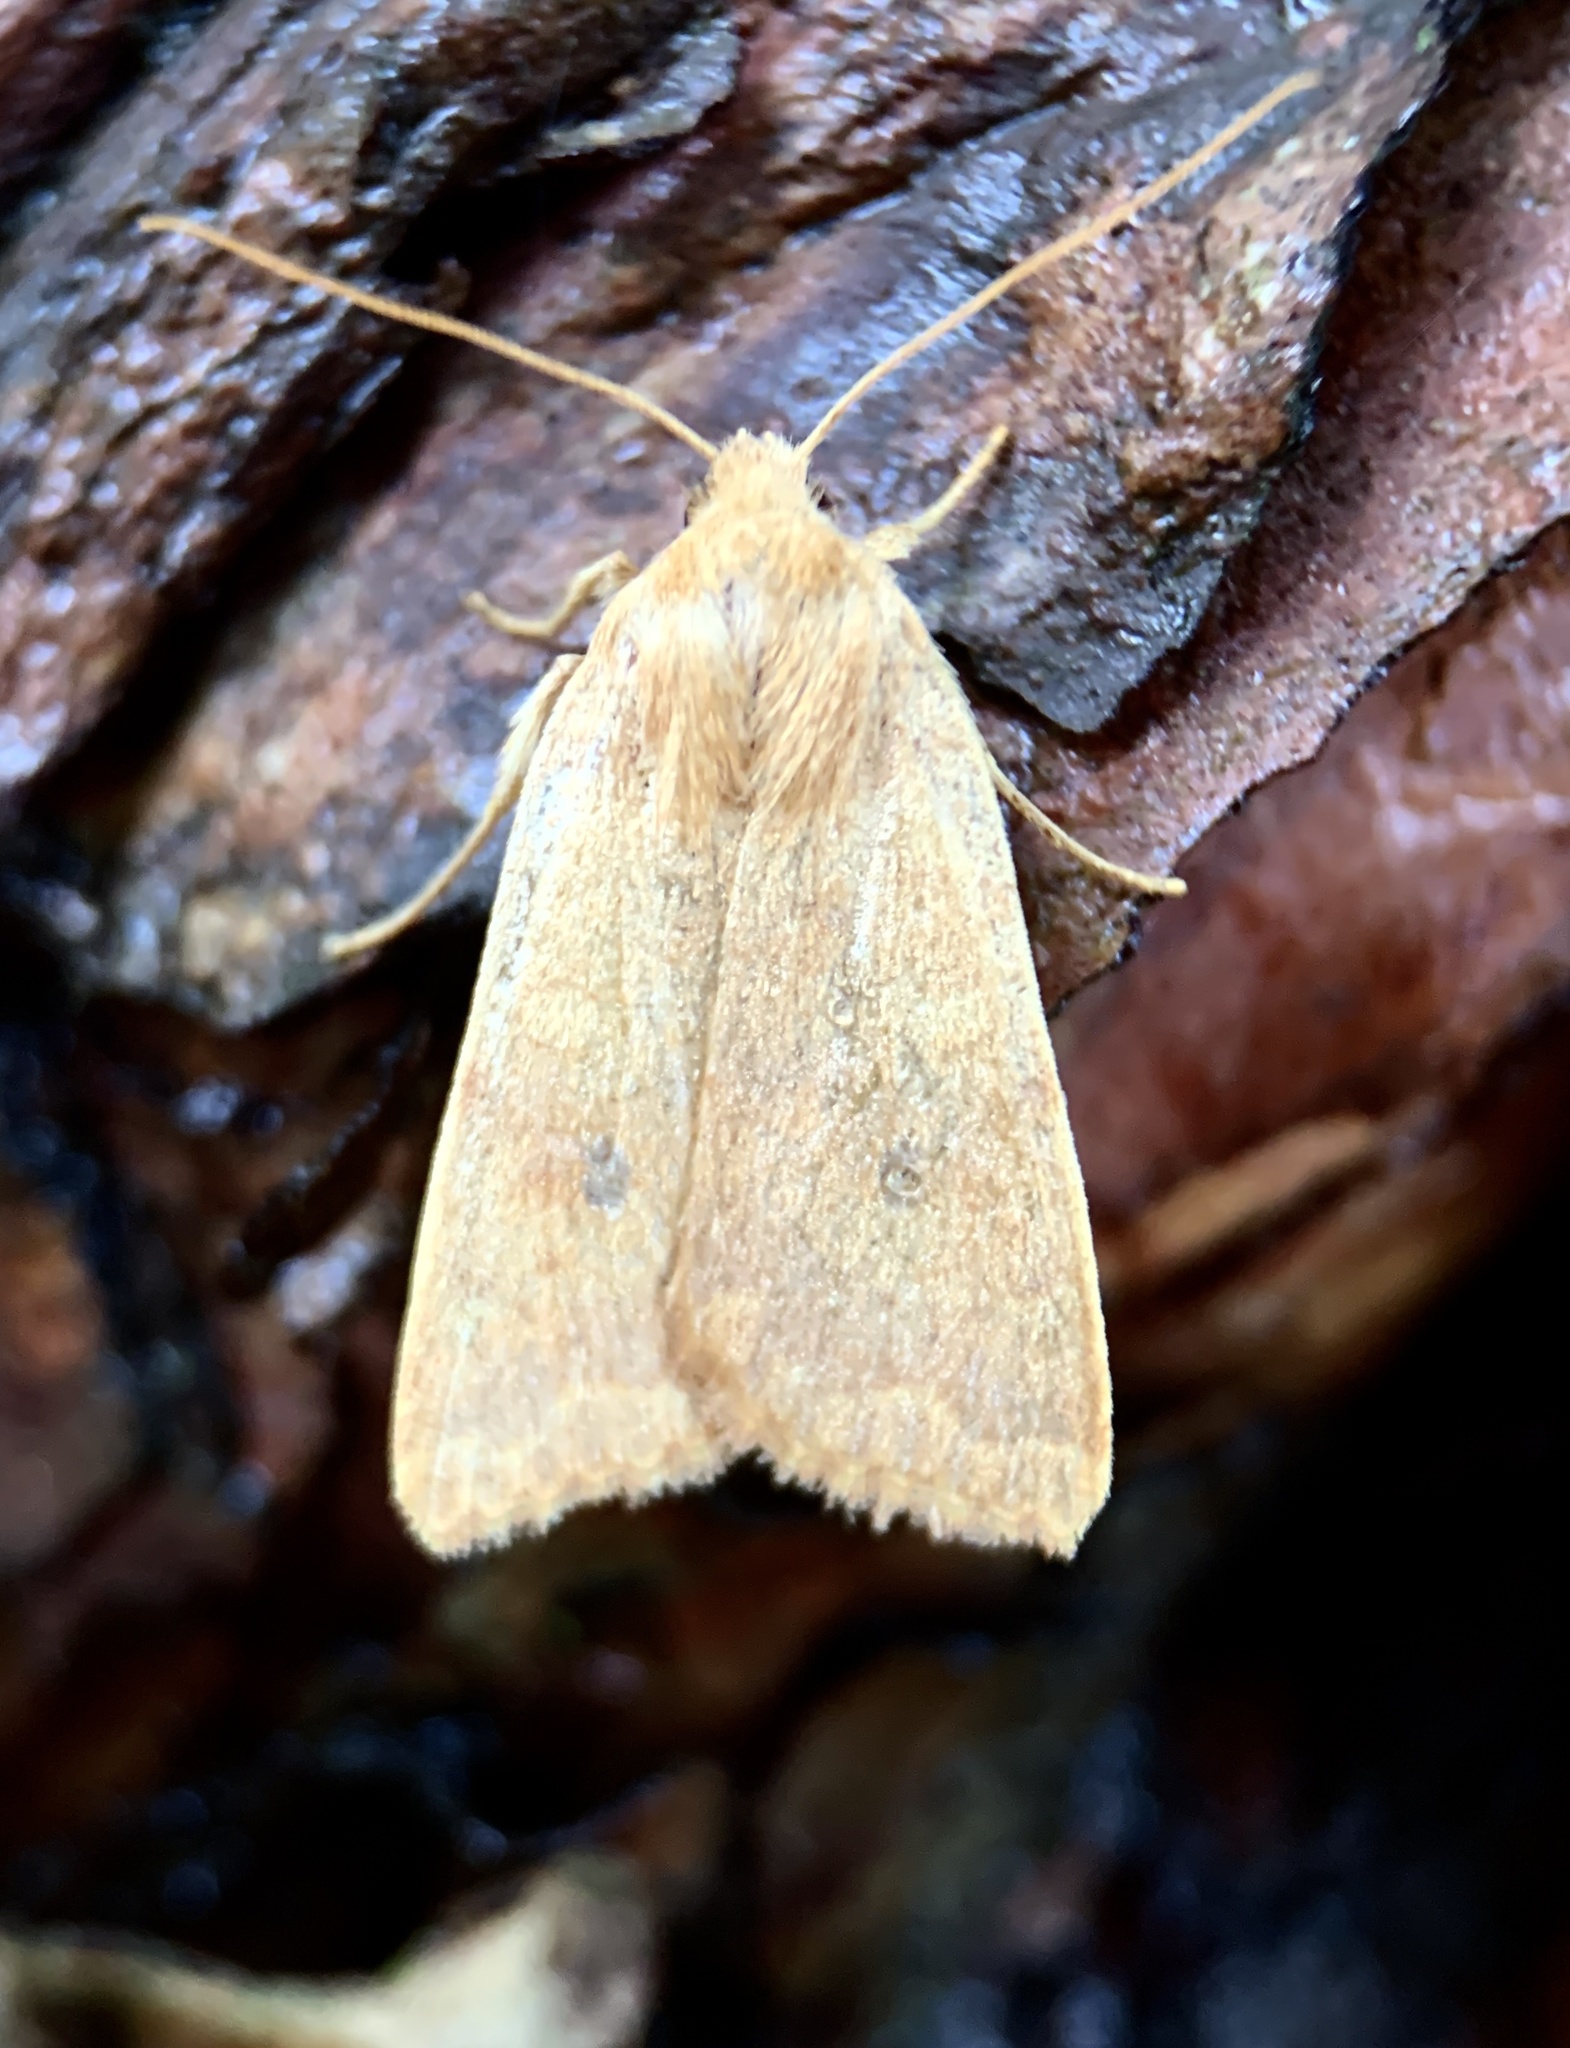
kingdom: Animalia
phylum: Arthropoda
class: Insecta
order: Lepidoptera
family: Noctuidae
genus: Agrochola
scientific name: Agrochola bicolorago
